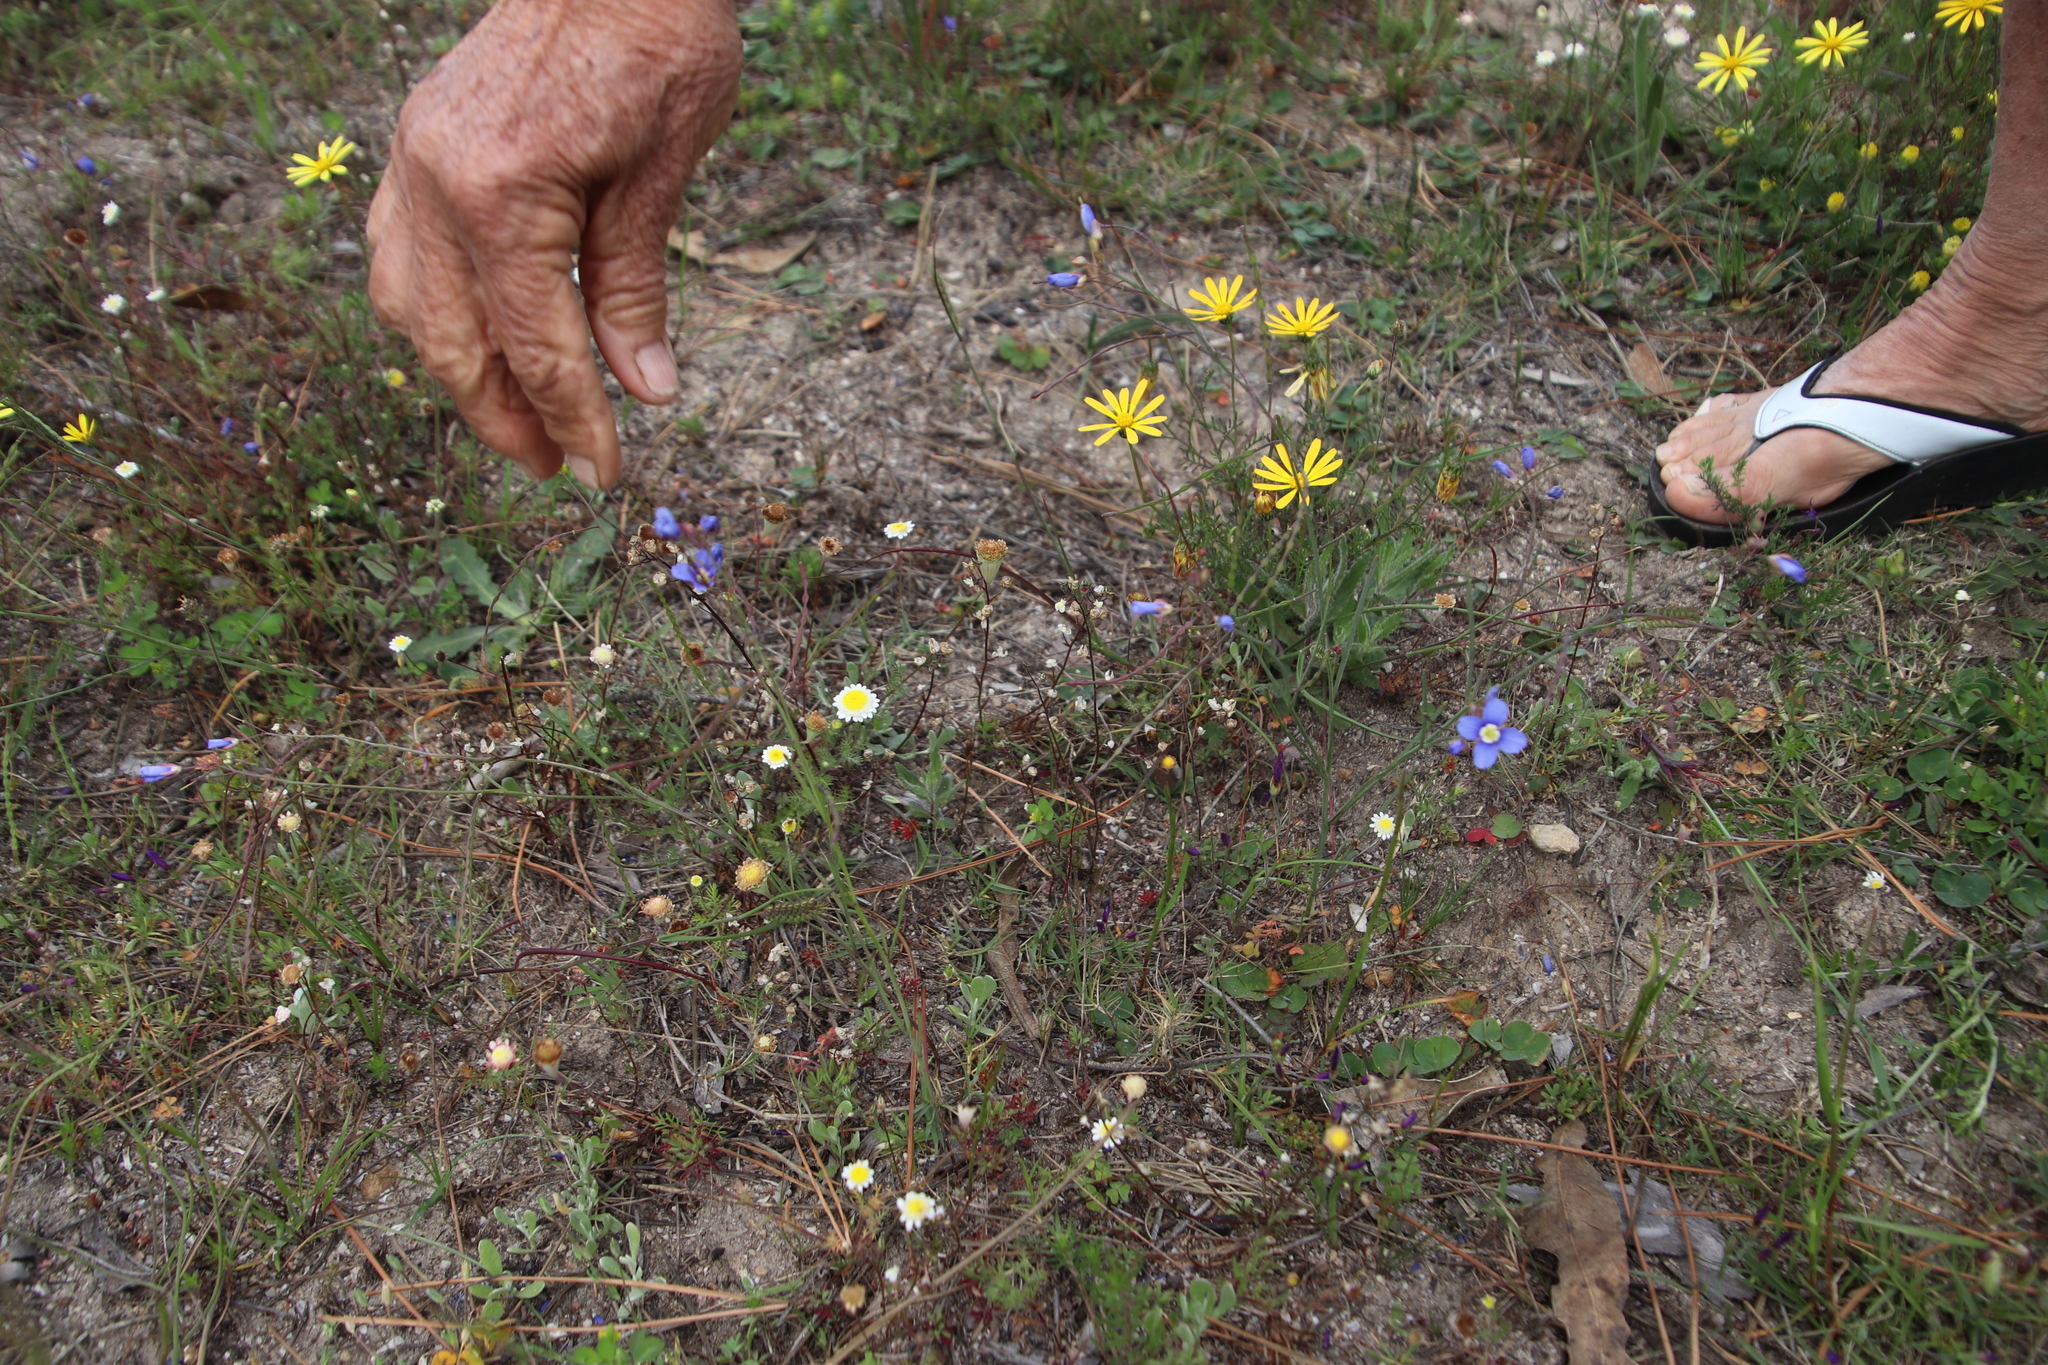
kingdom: Plantae
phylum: Tracheophyta
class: Magnoliopsida
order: Lamiales
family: Scrophulariaceae
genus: Nemesia
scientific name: Nemesia pinnata
